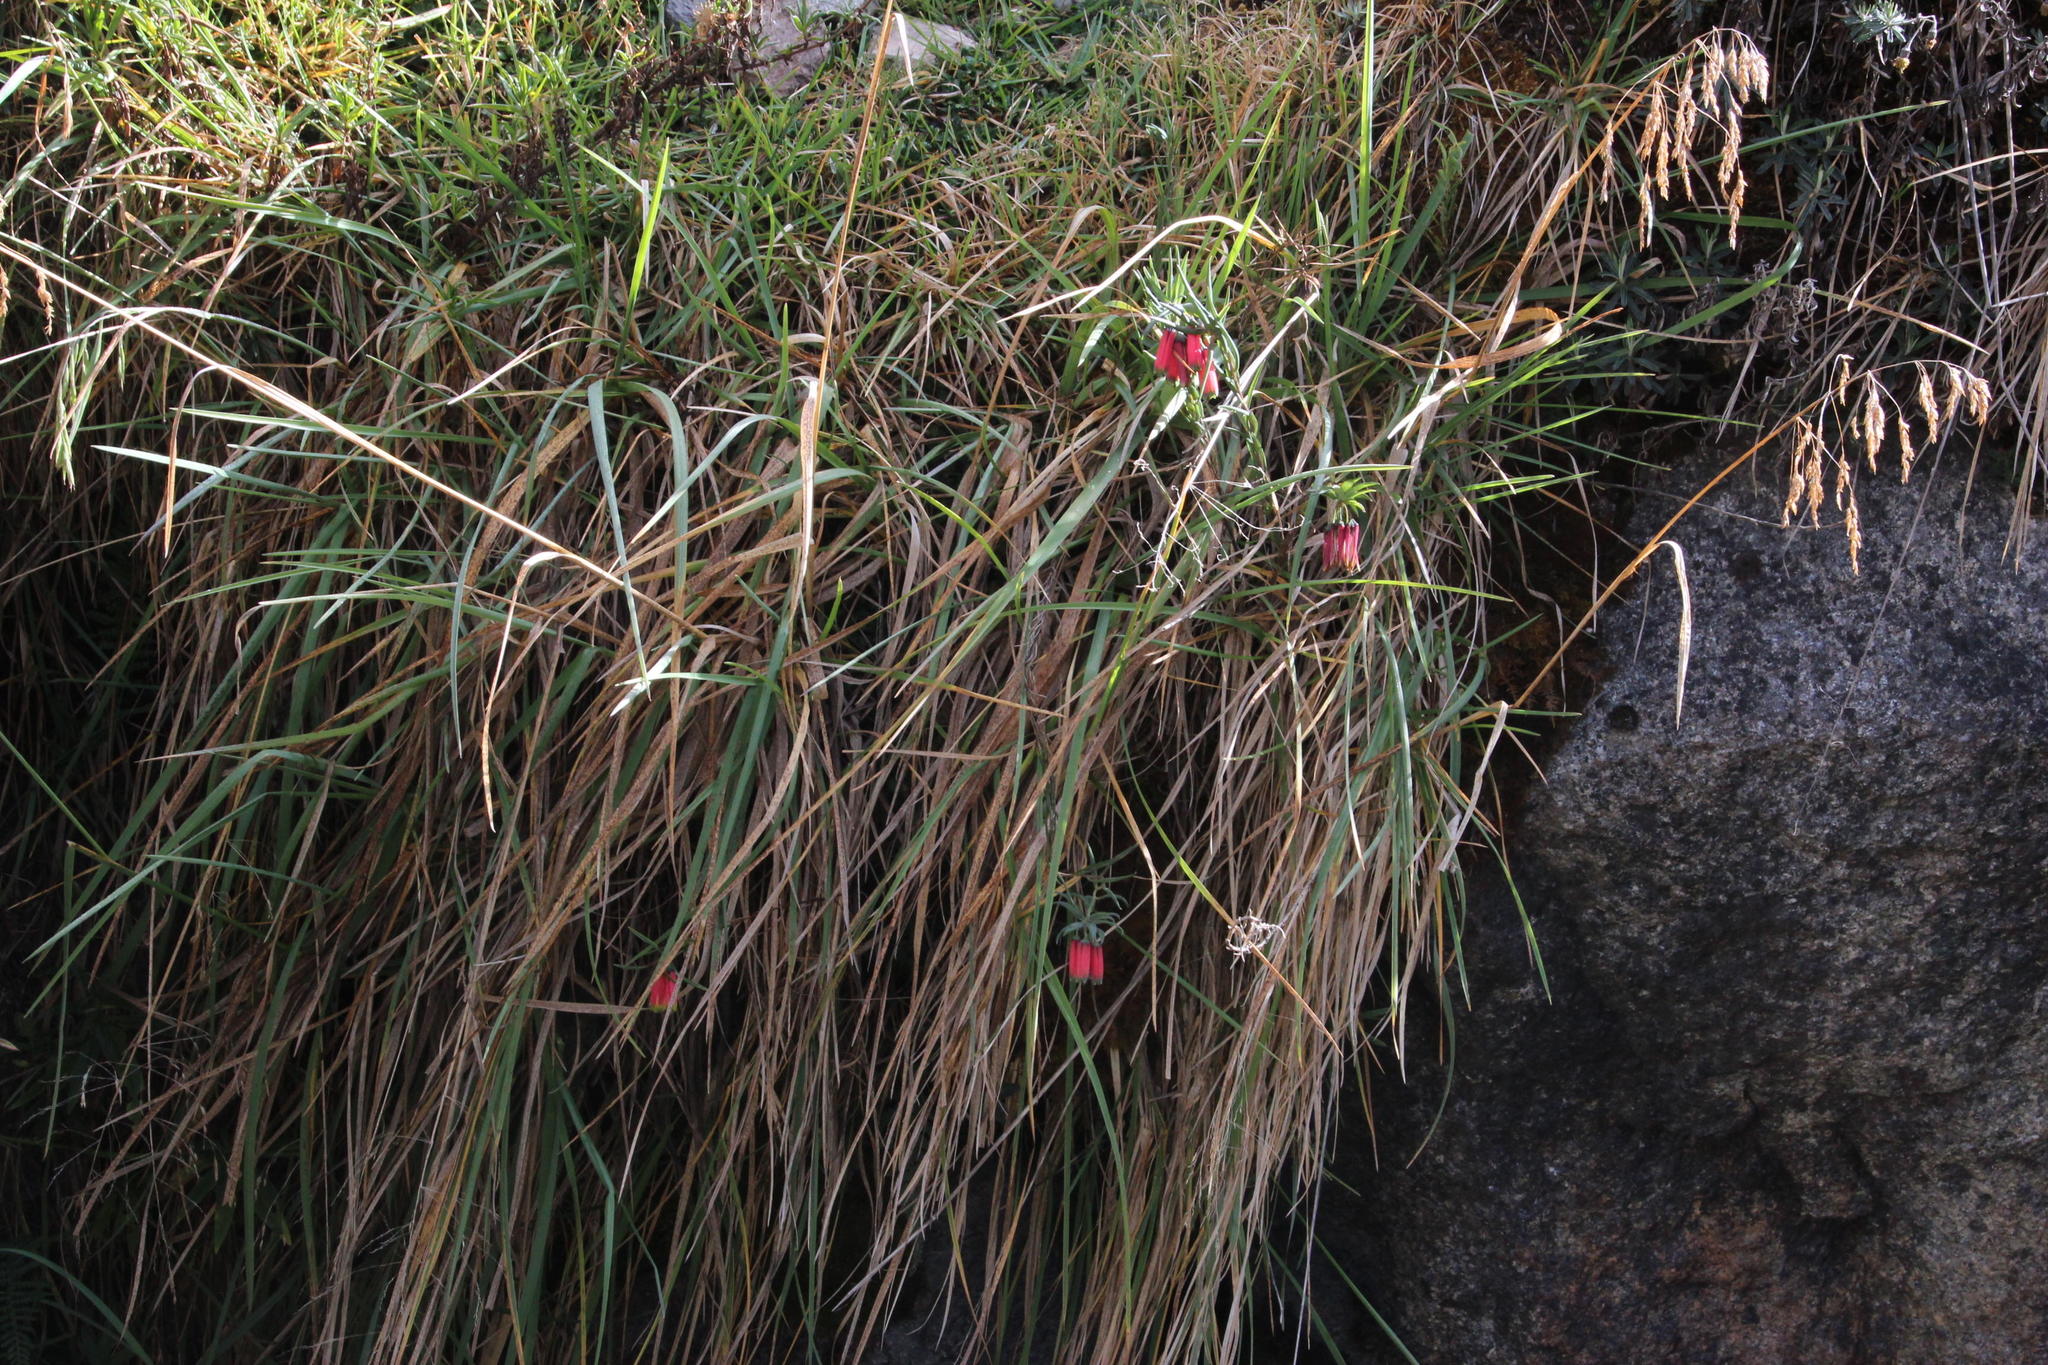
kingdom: Plantae
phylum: Tracheophyta
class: Liliopsida
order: Liliales
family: Alstroemeriaceae
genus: Bomarea
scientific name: Bomarea crocea
